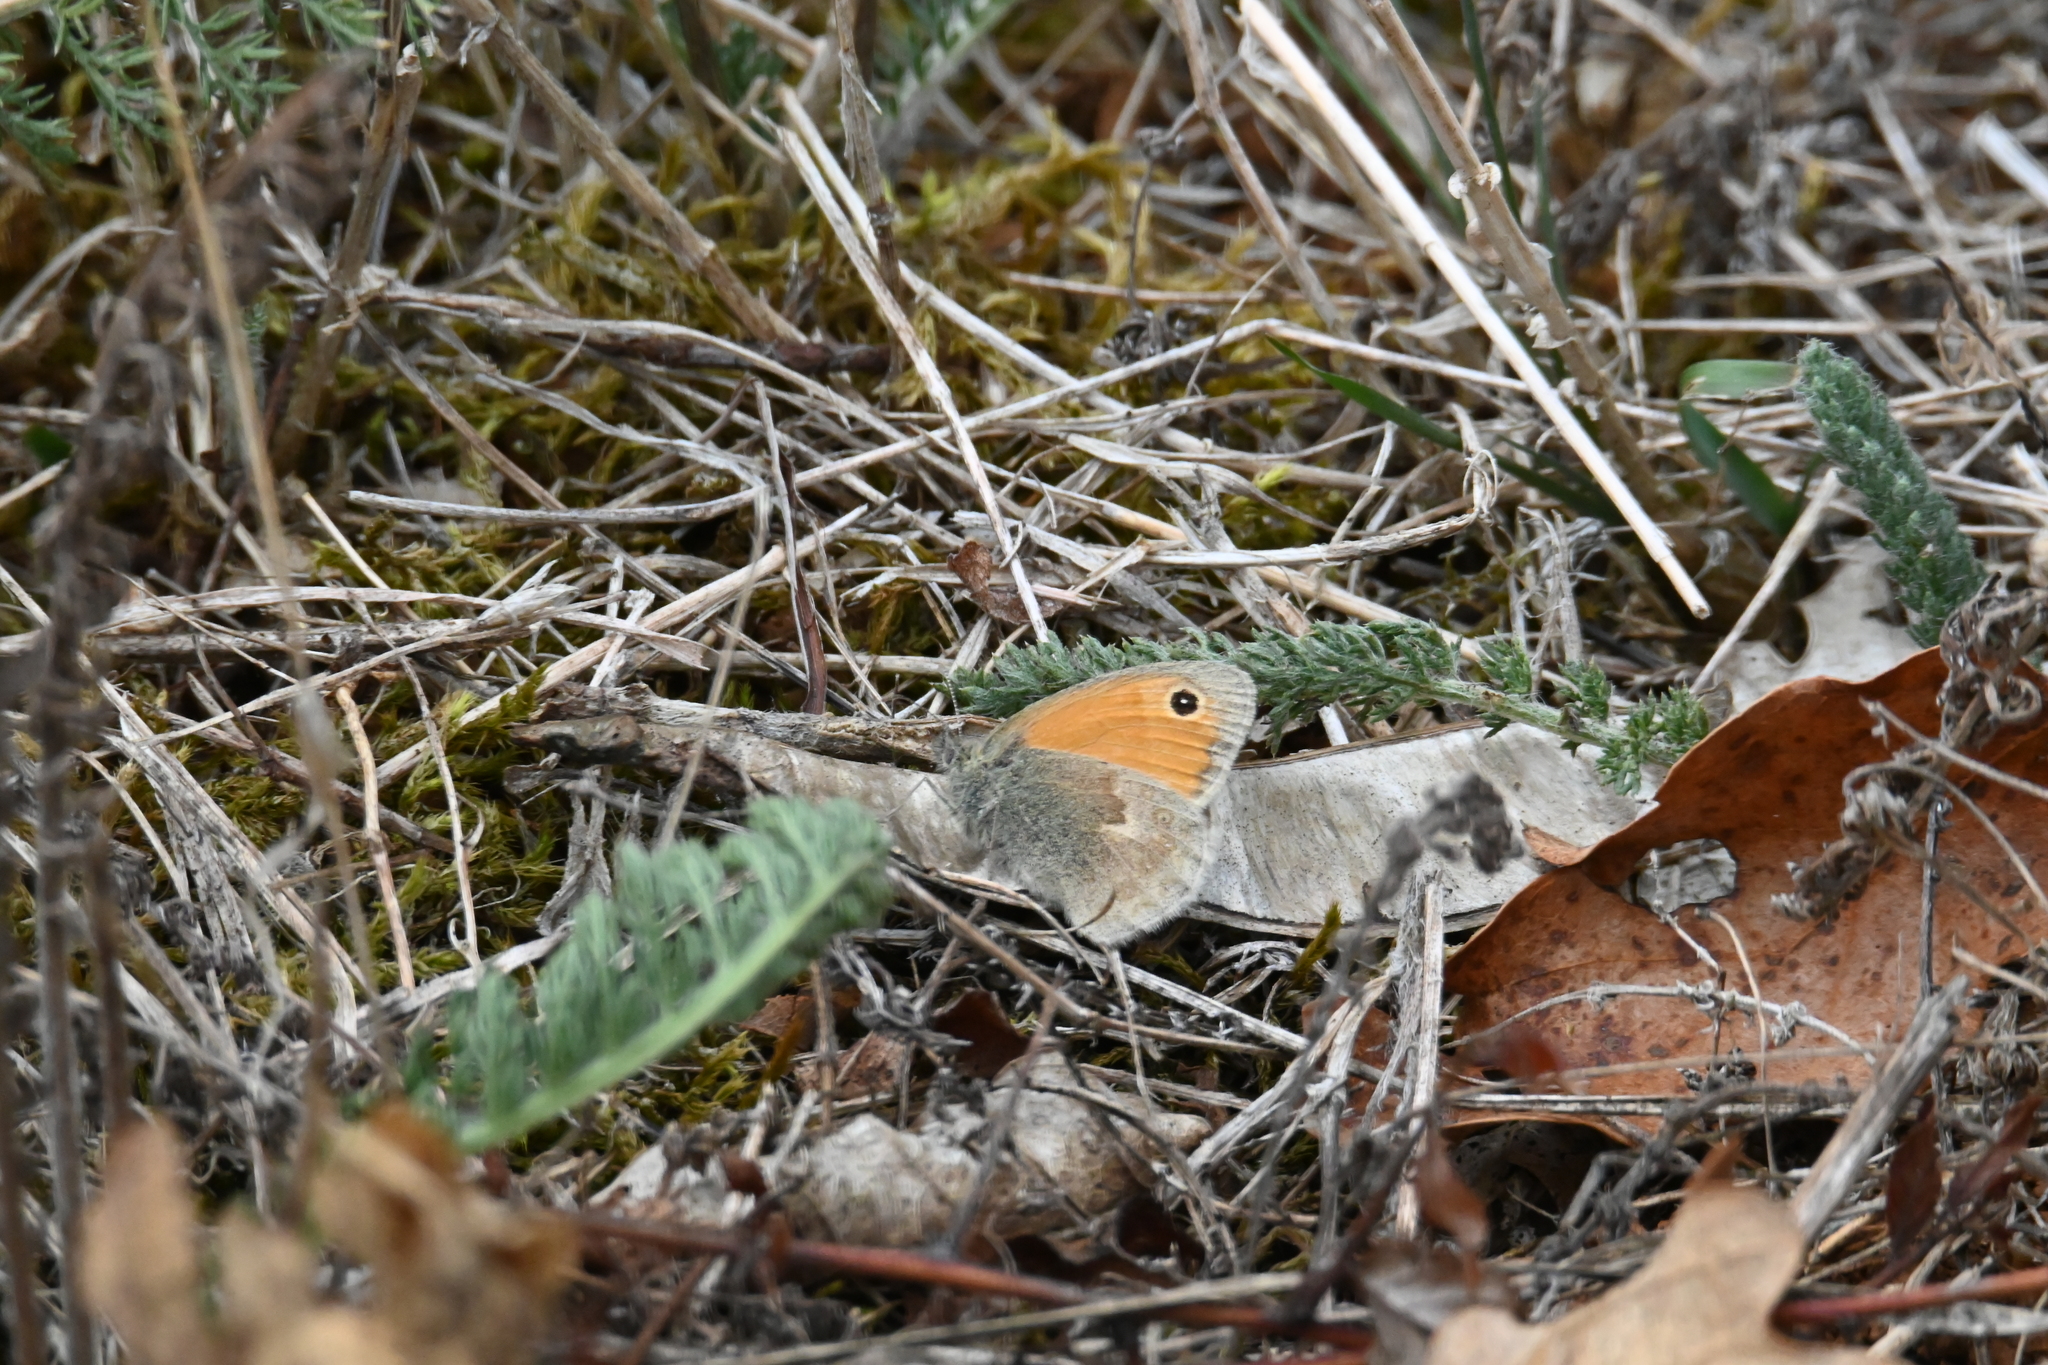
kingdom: Animalia
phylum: Arthropoda
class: Insecta
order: Lepidoptera
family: Nymphalidae
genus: Coenonympha
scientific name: Coenonympha pamphilus
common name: Small heath
